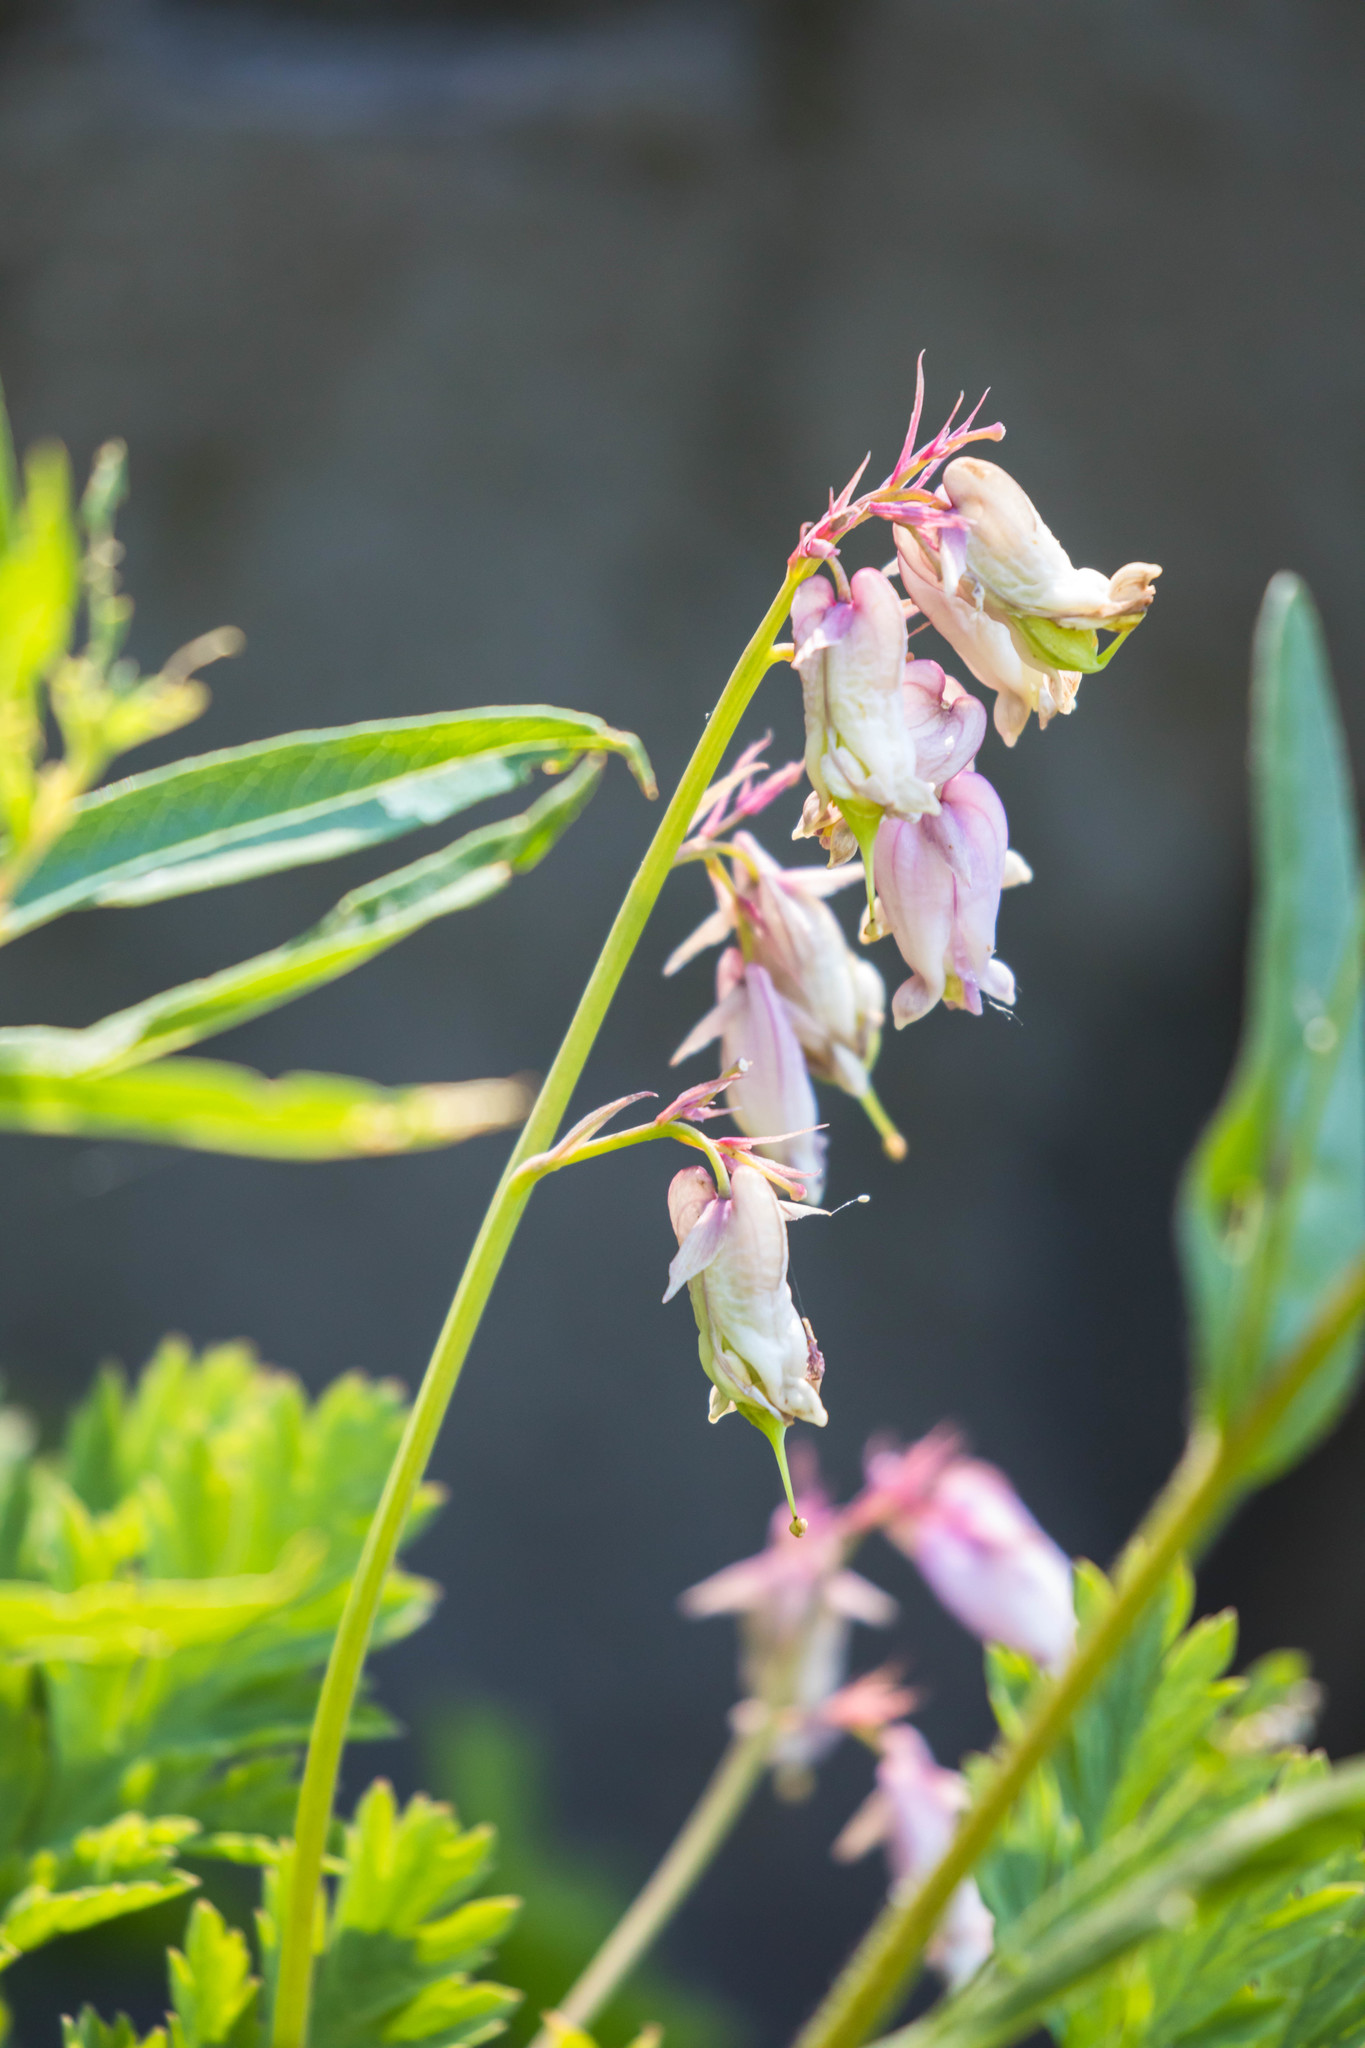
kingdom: Plantae
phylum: Tracheophyta
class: Magnoliopsida
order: Ranunculales
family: Papaveraceae
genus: Dicentra
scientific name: Dicentra formosa
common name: Bleeding-heart
